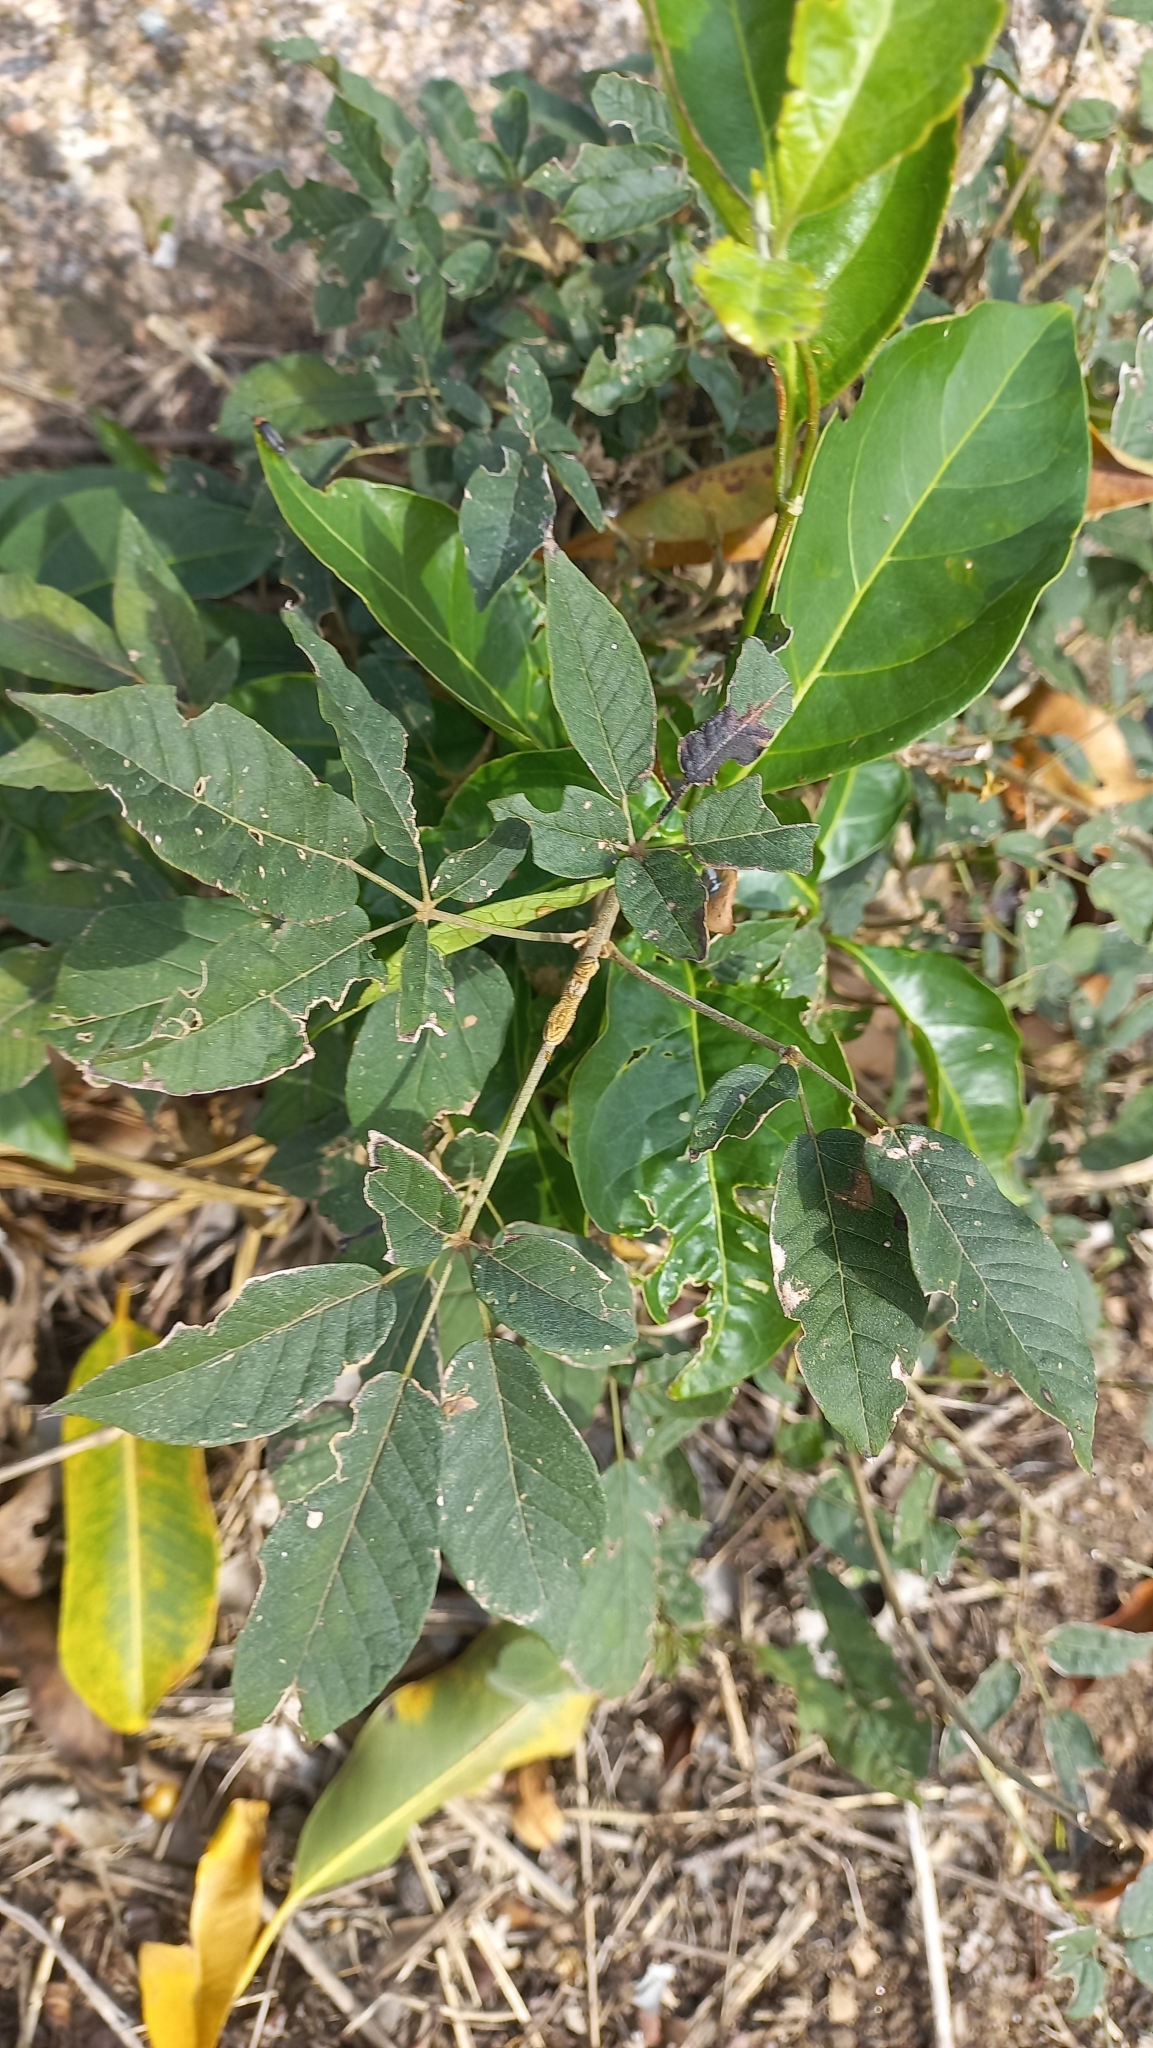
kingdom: Plantae
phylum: Tracheophyta
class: Magnoliopsida
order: Lamiales
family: Bignoniaceae
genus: Handroanthus
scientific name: Handroanthus pulcherrimus
